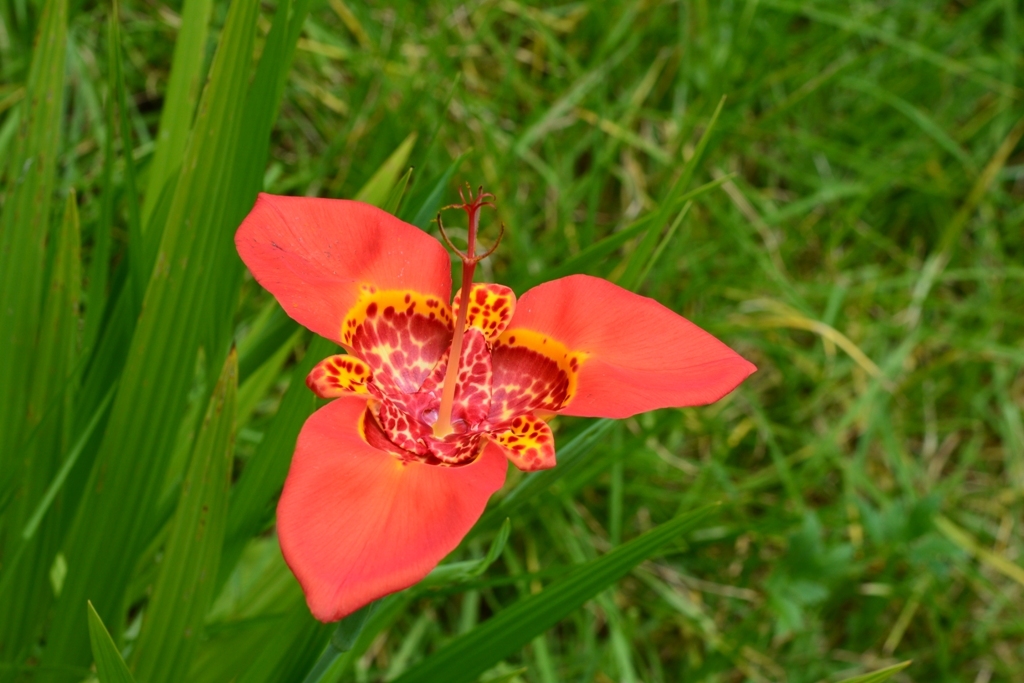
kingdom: Plantae
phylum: Tracheophyta
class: Liliopsida
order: Asparagales
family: Iridaceae
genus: Tigridia
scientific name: Tigridia pavonia
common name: Peacock-flower
